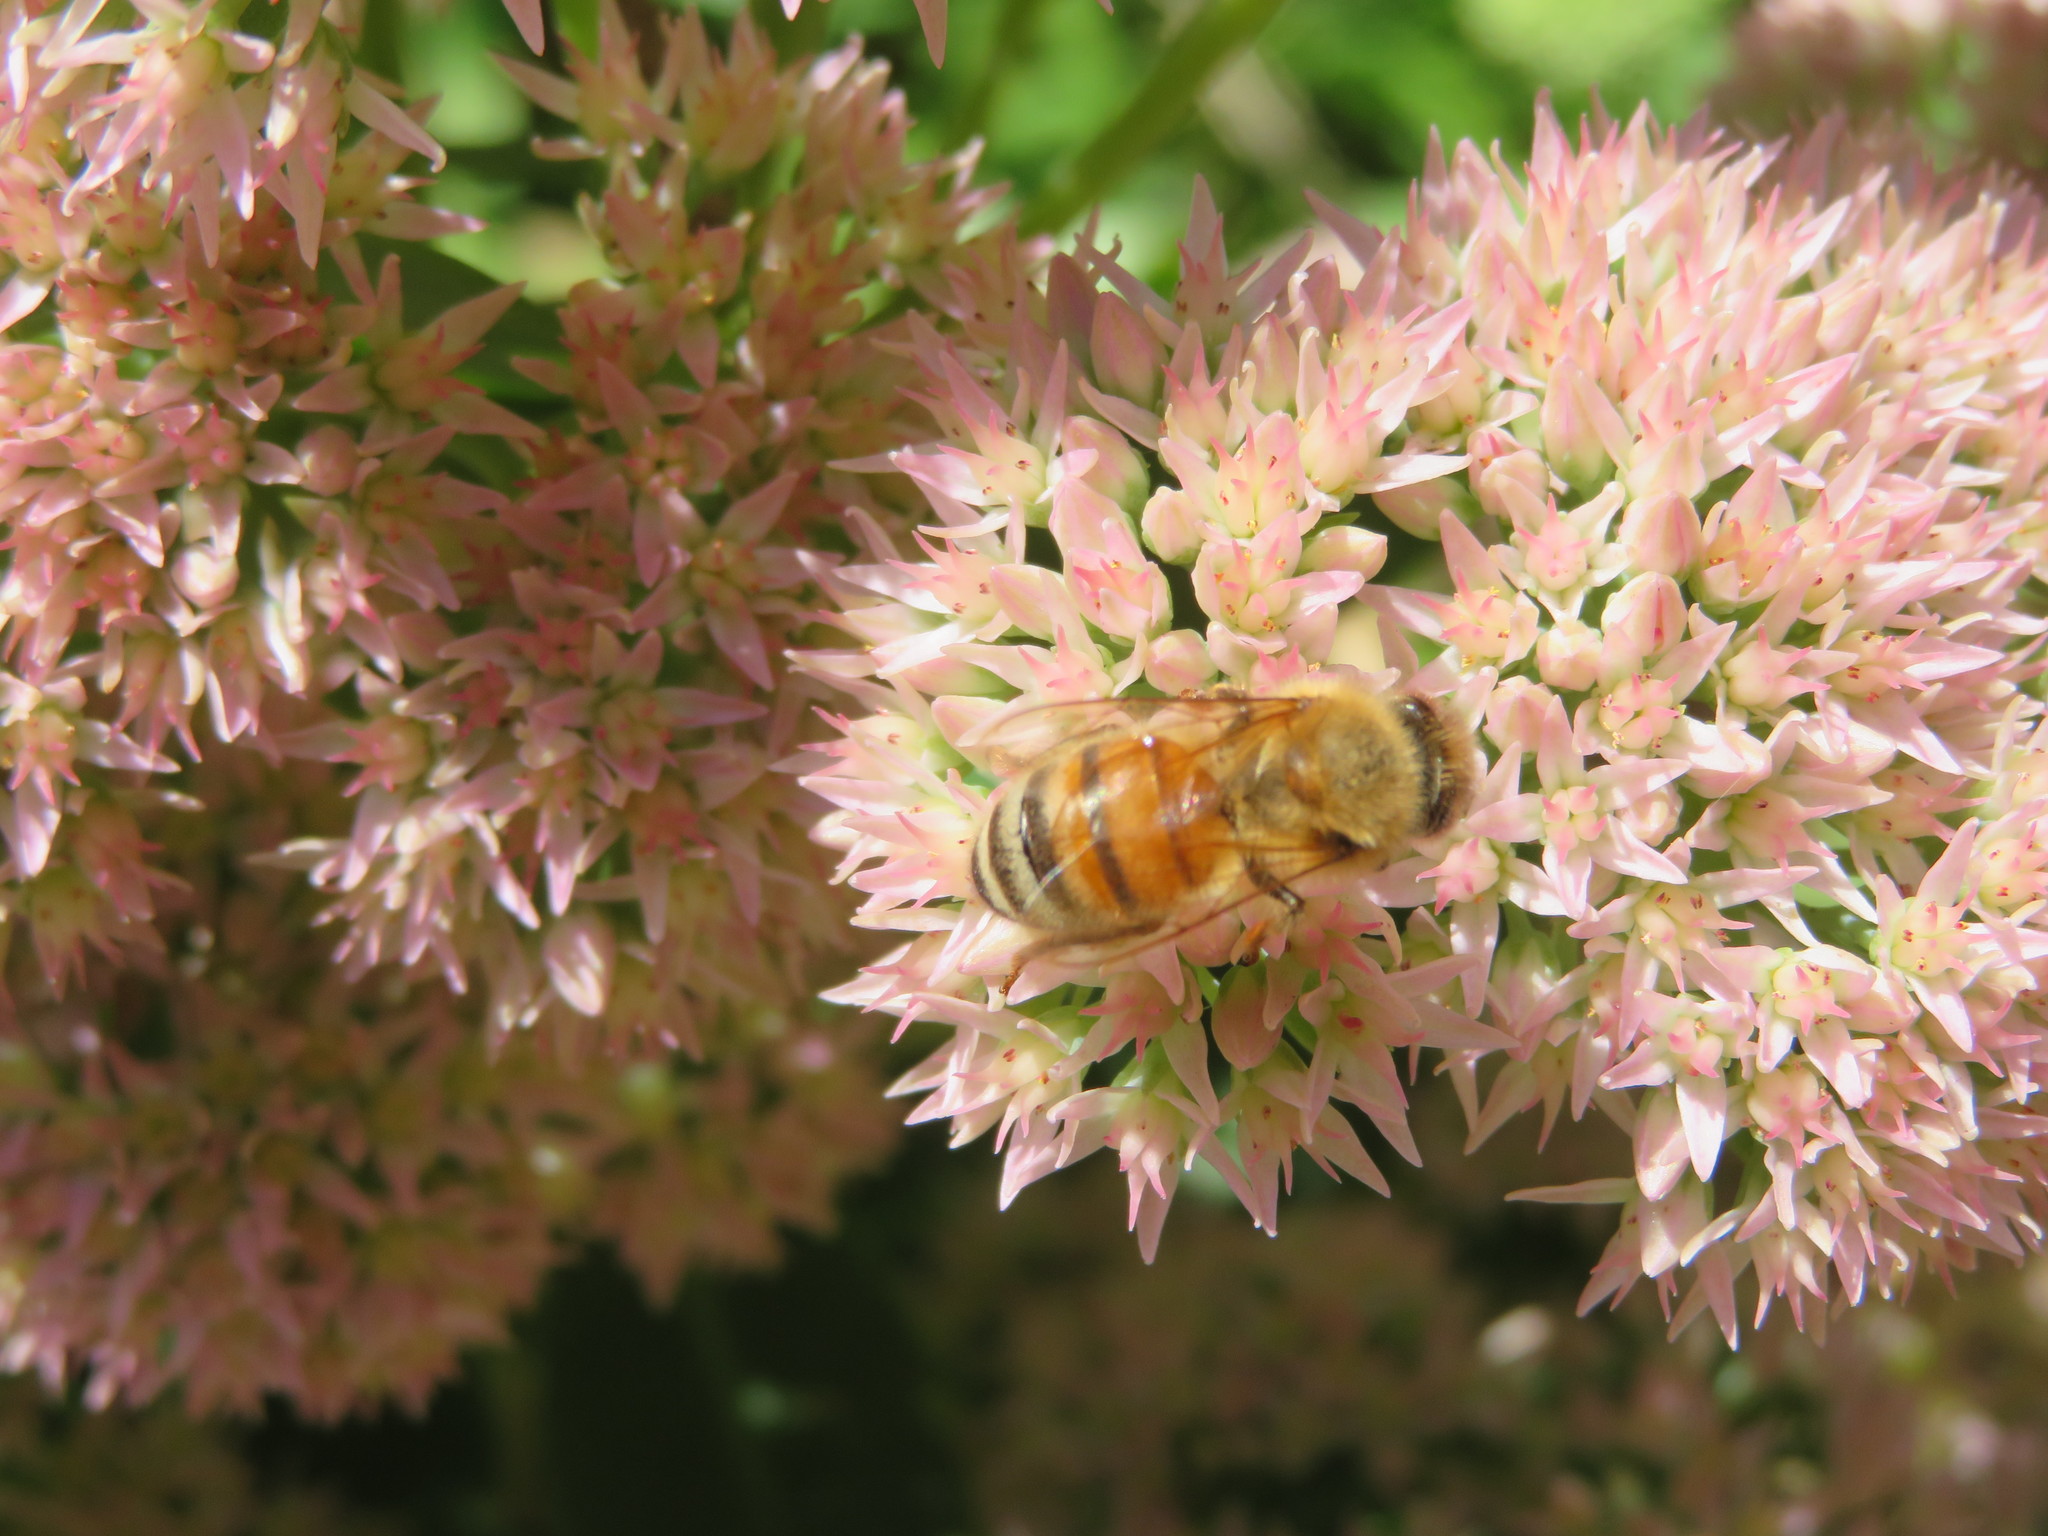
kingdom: Animalia
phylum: Arthropoda
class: Insecta
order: Hymenoptera
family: Apidae
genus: Apis
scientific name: Apis mellifera
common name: Honey bee
